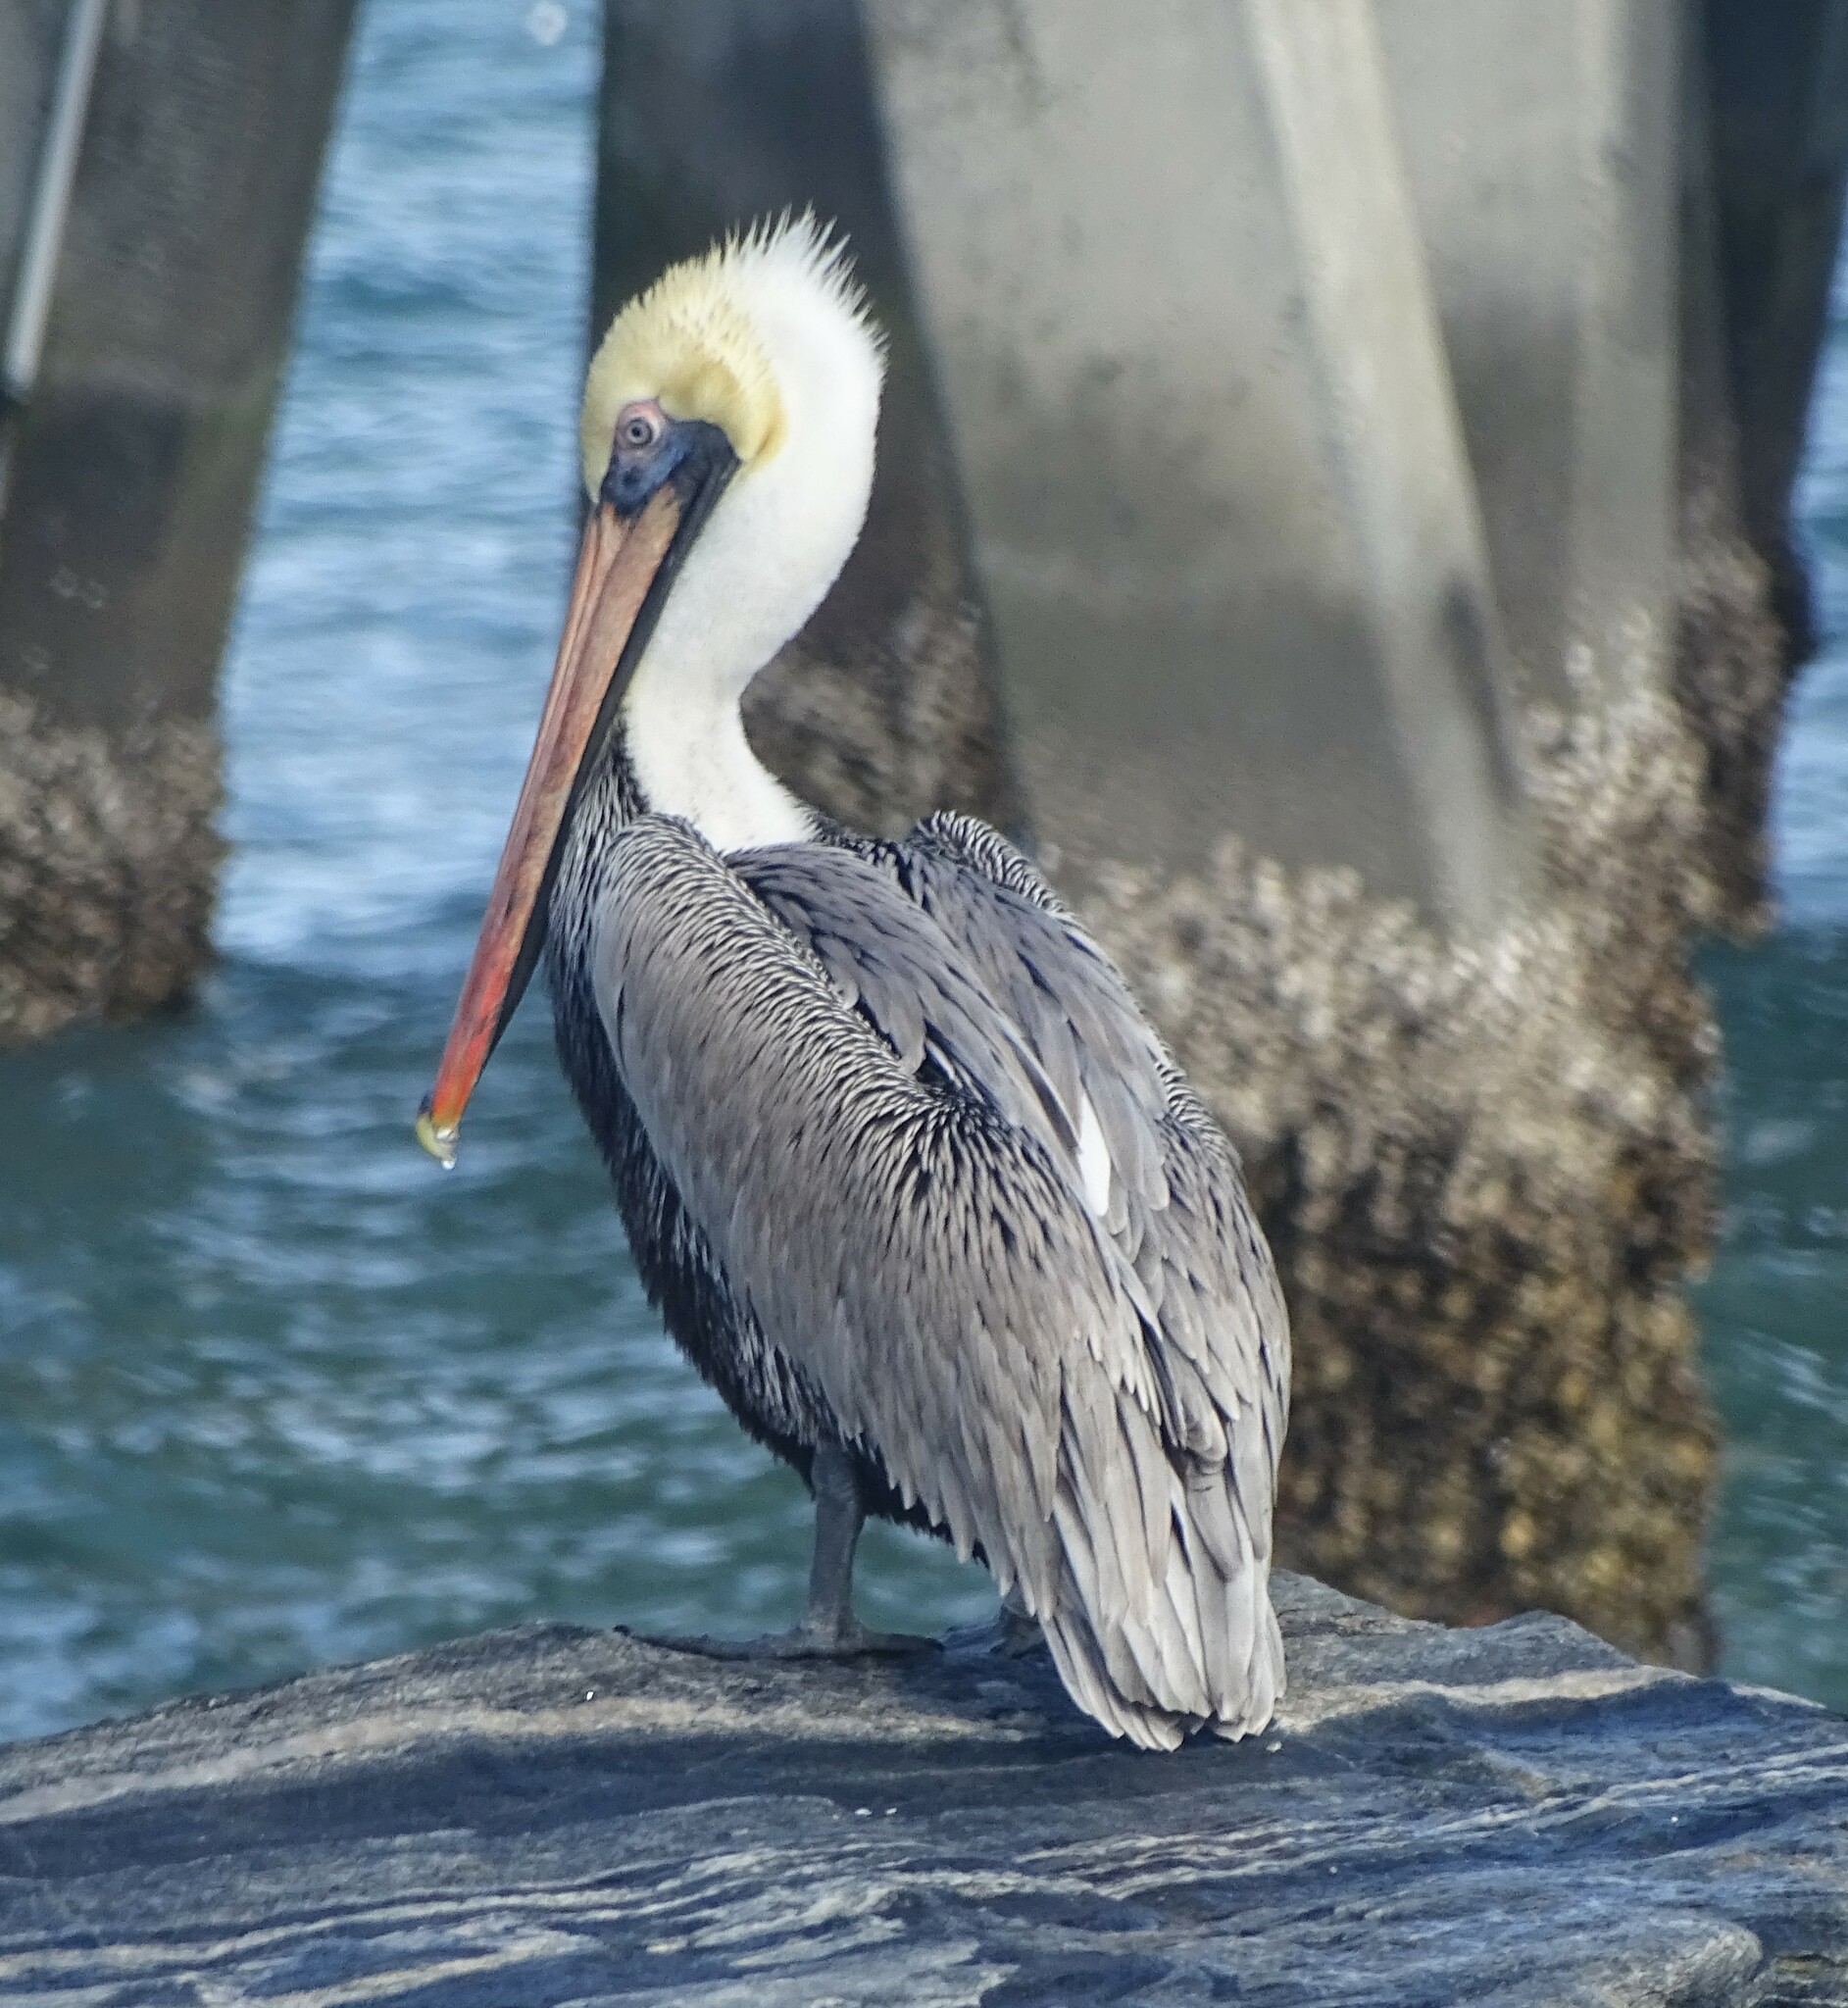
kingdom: Animalia
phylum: Chordata
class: Aves
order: Pelecaniformes
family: Pelecanidae
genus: Pelecanus
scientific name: Pelecanus occidentalis
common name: Brown pelican
